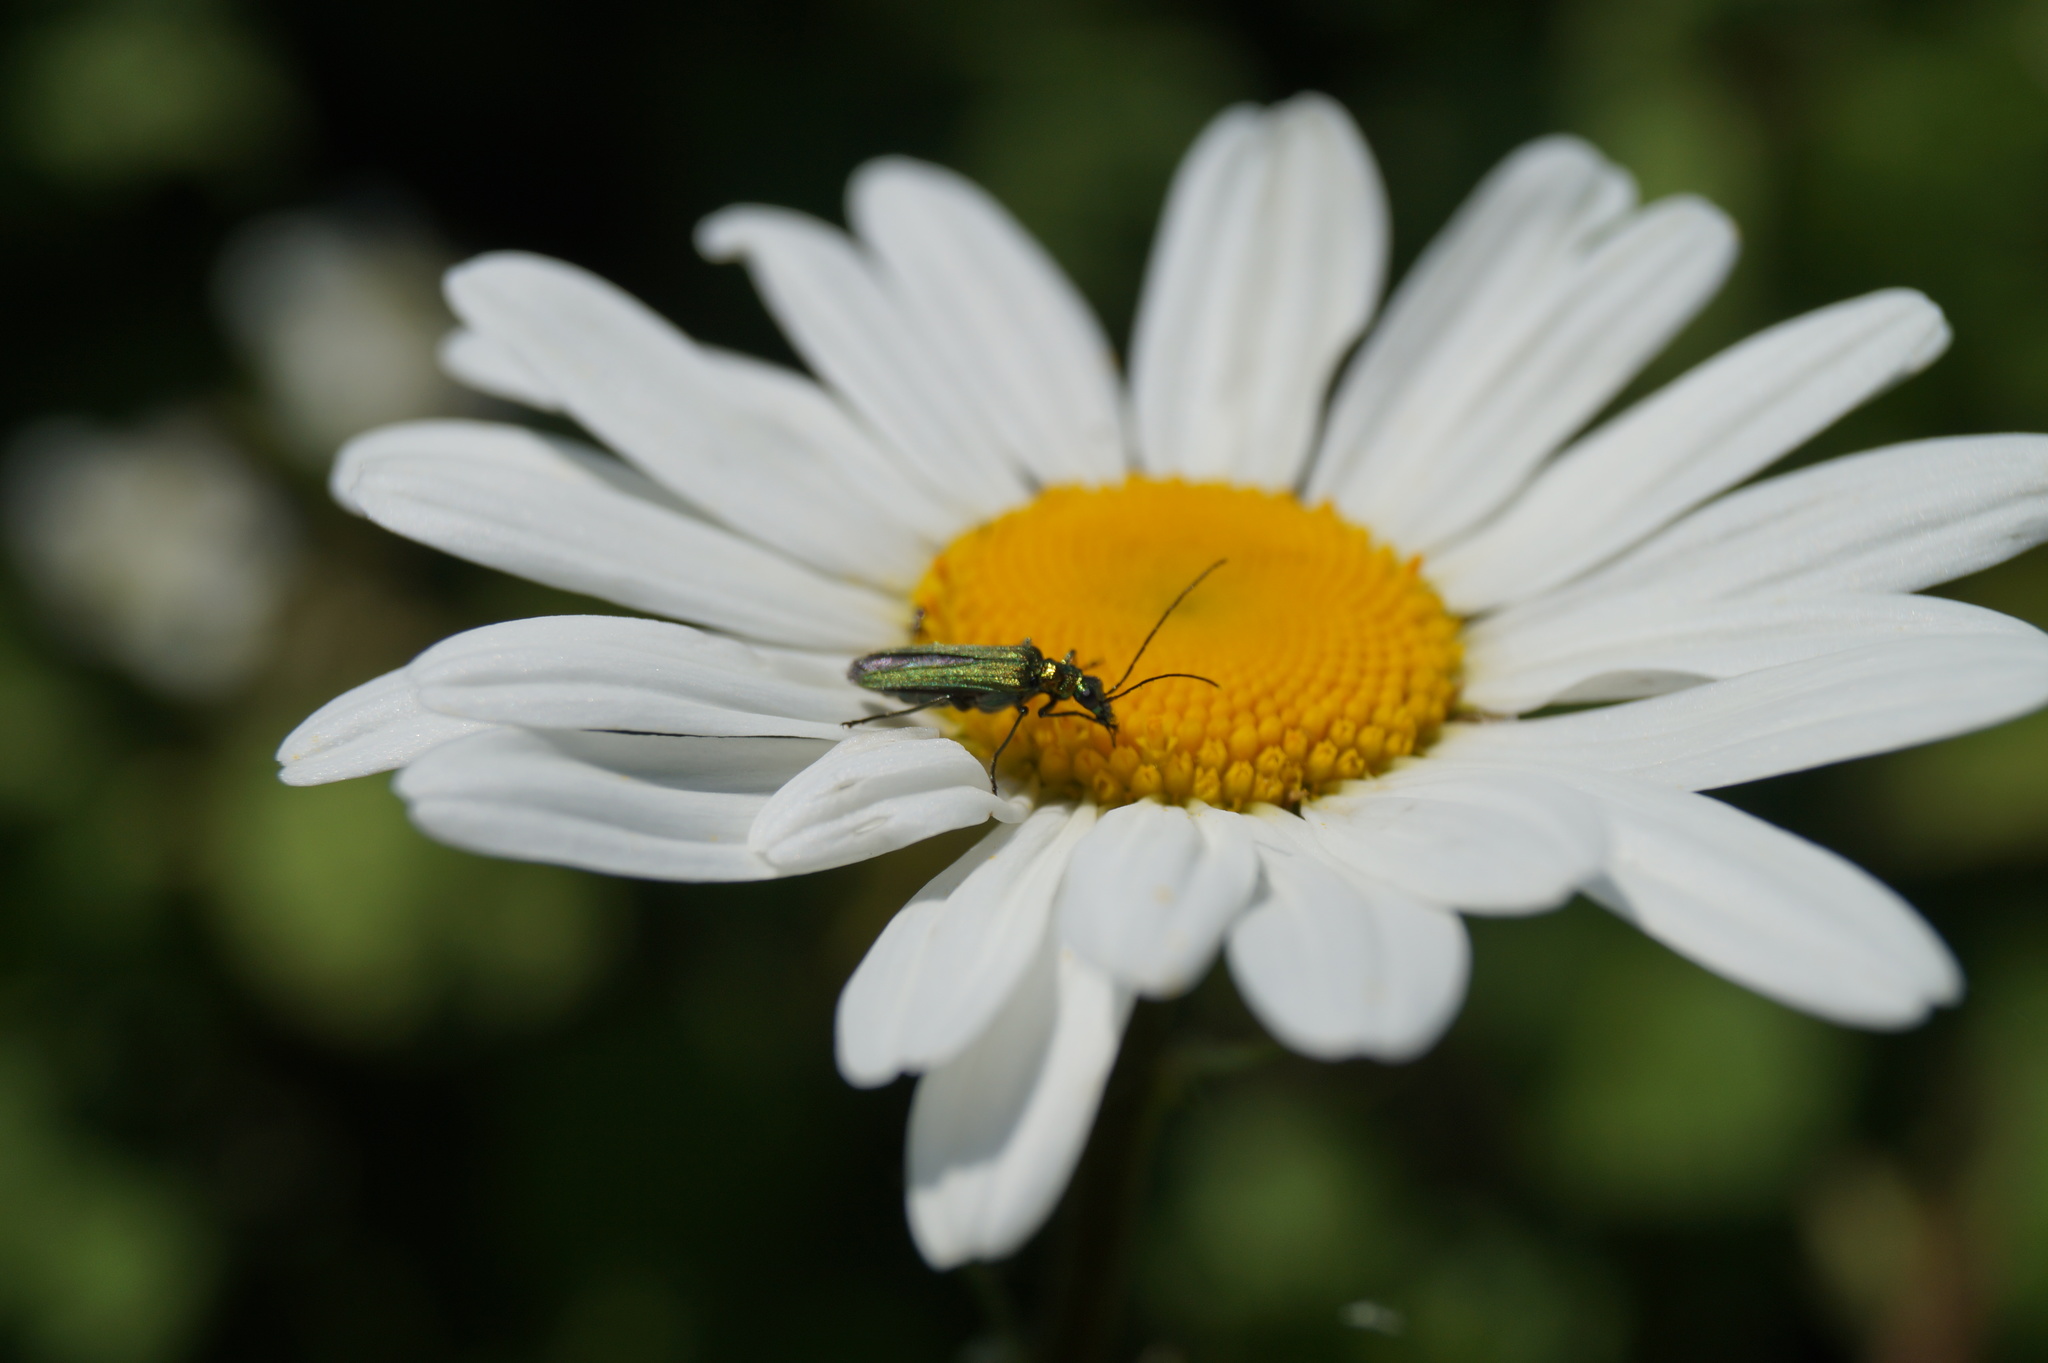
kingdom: Animalia
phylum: Arthropoda
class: Insecta
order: Coleoptera
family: Oedemeridae
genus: Oedemera
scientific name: Oedemera nobilis
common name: Swollen-thighed beetle
